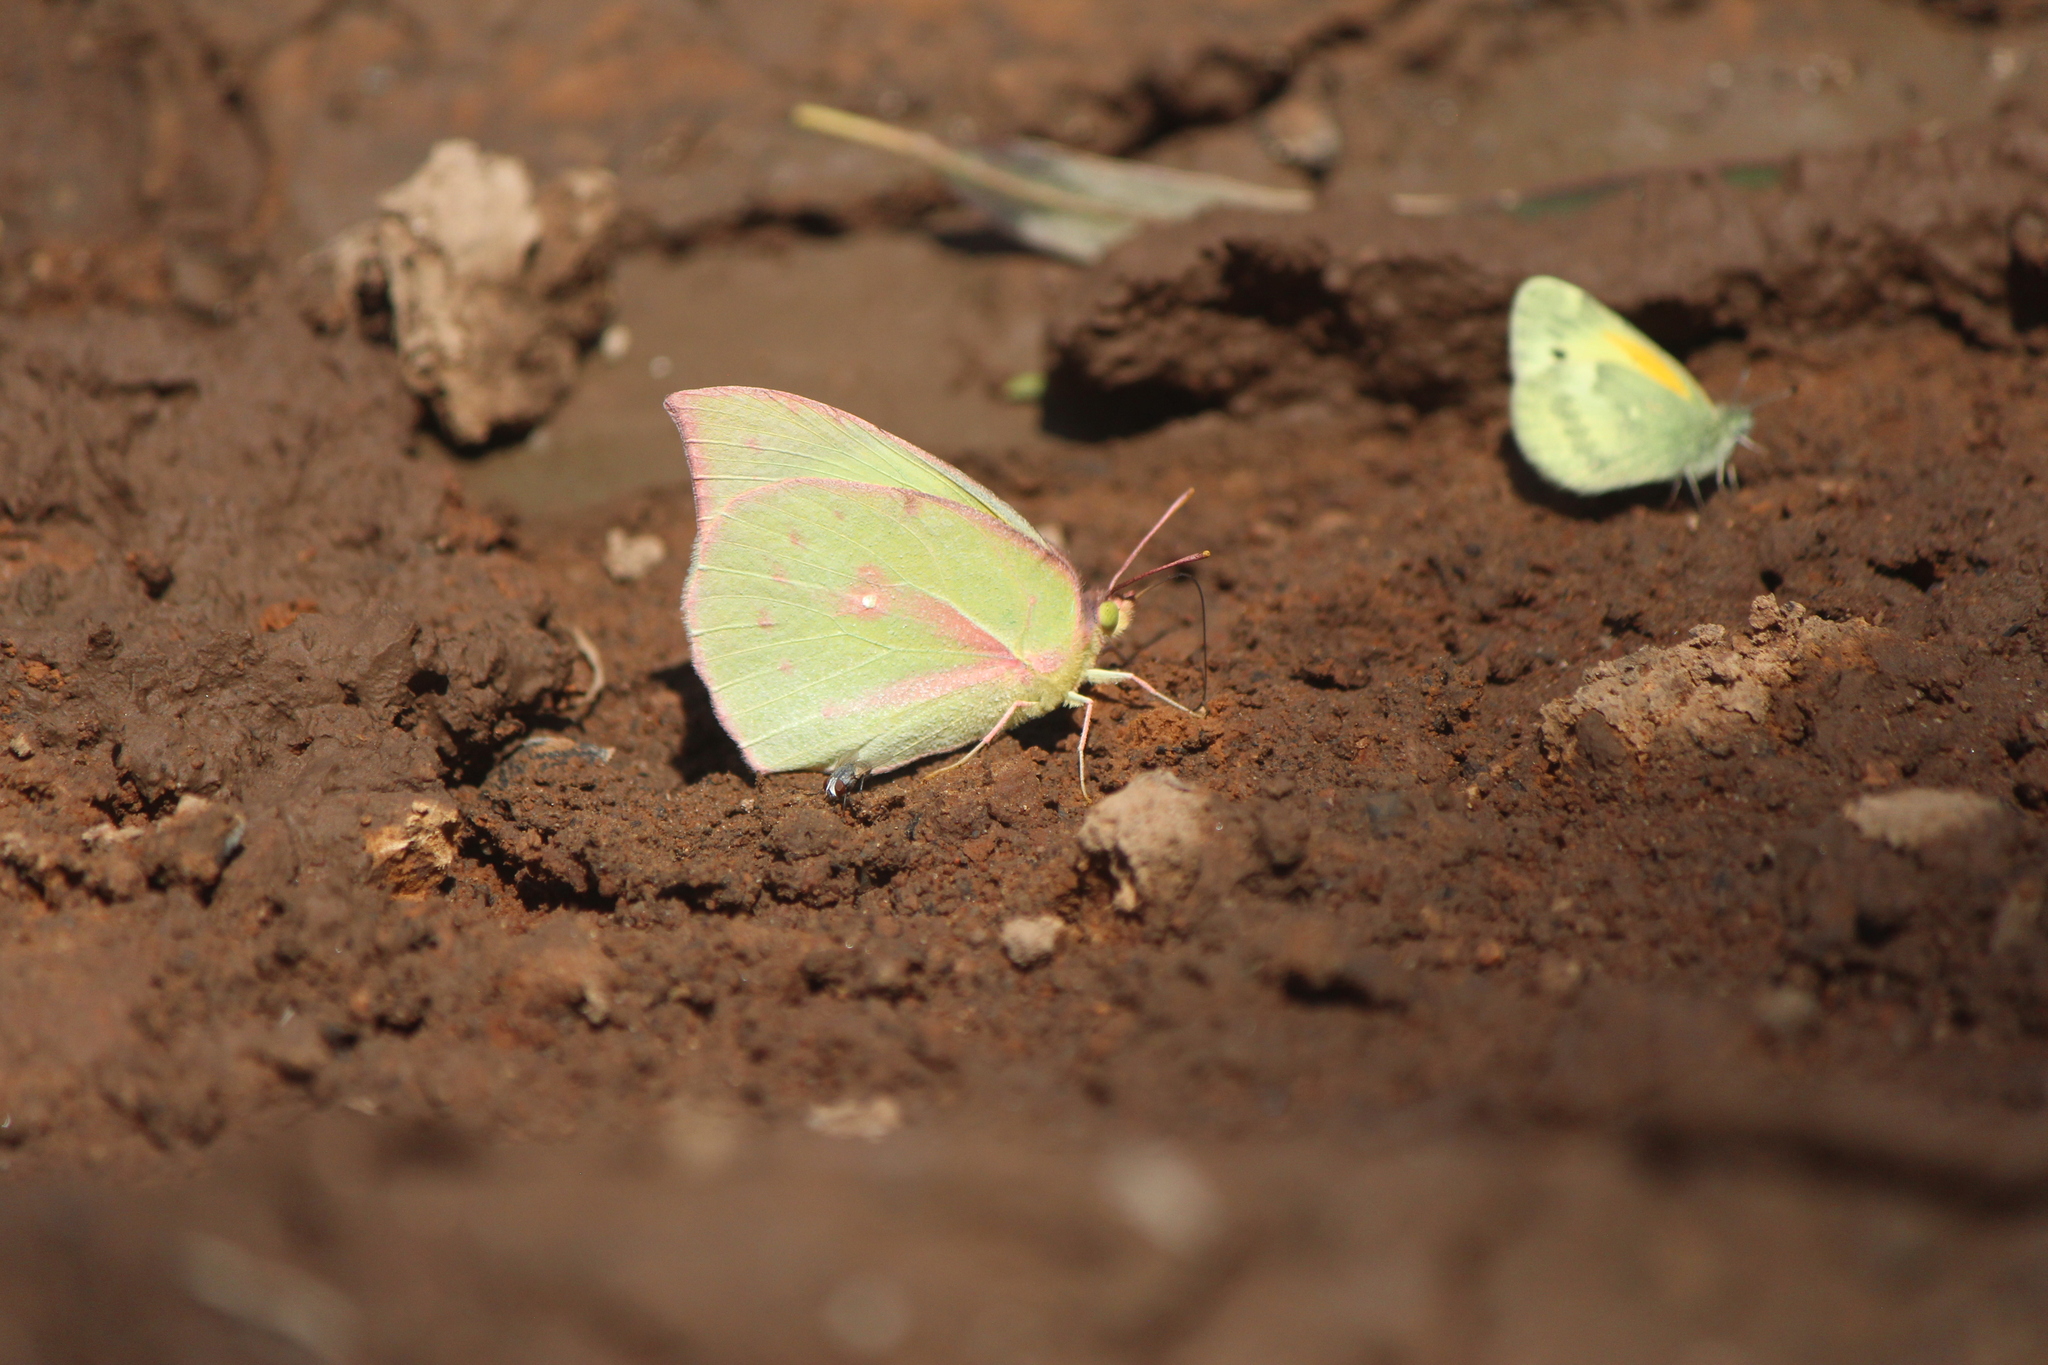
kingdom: Animalia
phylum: Arthropoda
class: Insecta
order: Lepidoptera
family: Pieridae
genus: Zerene
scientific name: Zerene cesonia
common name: Southern dogface
